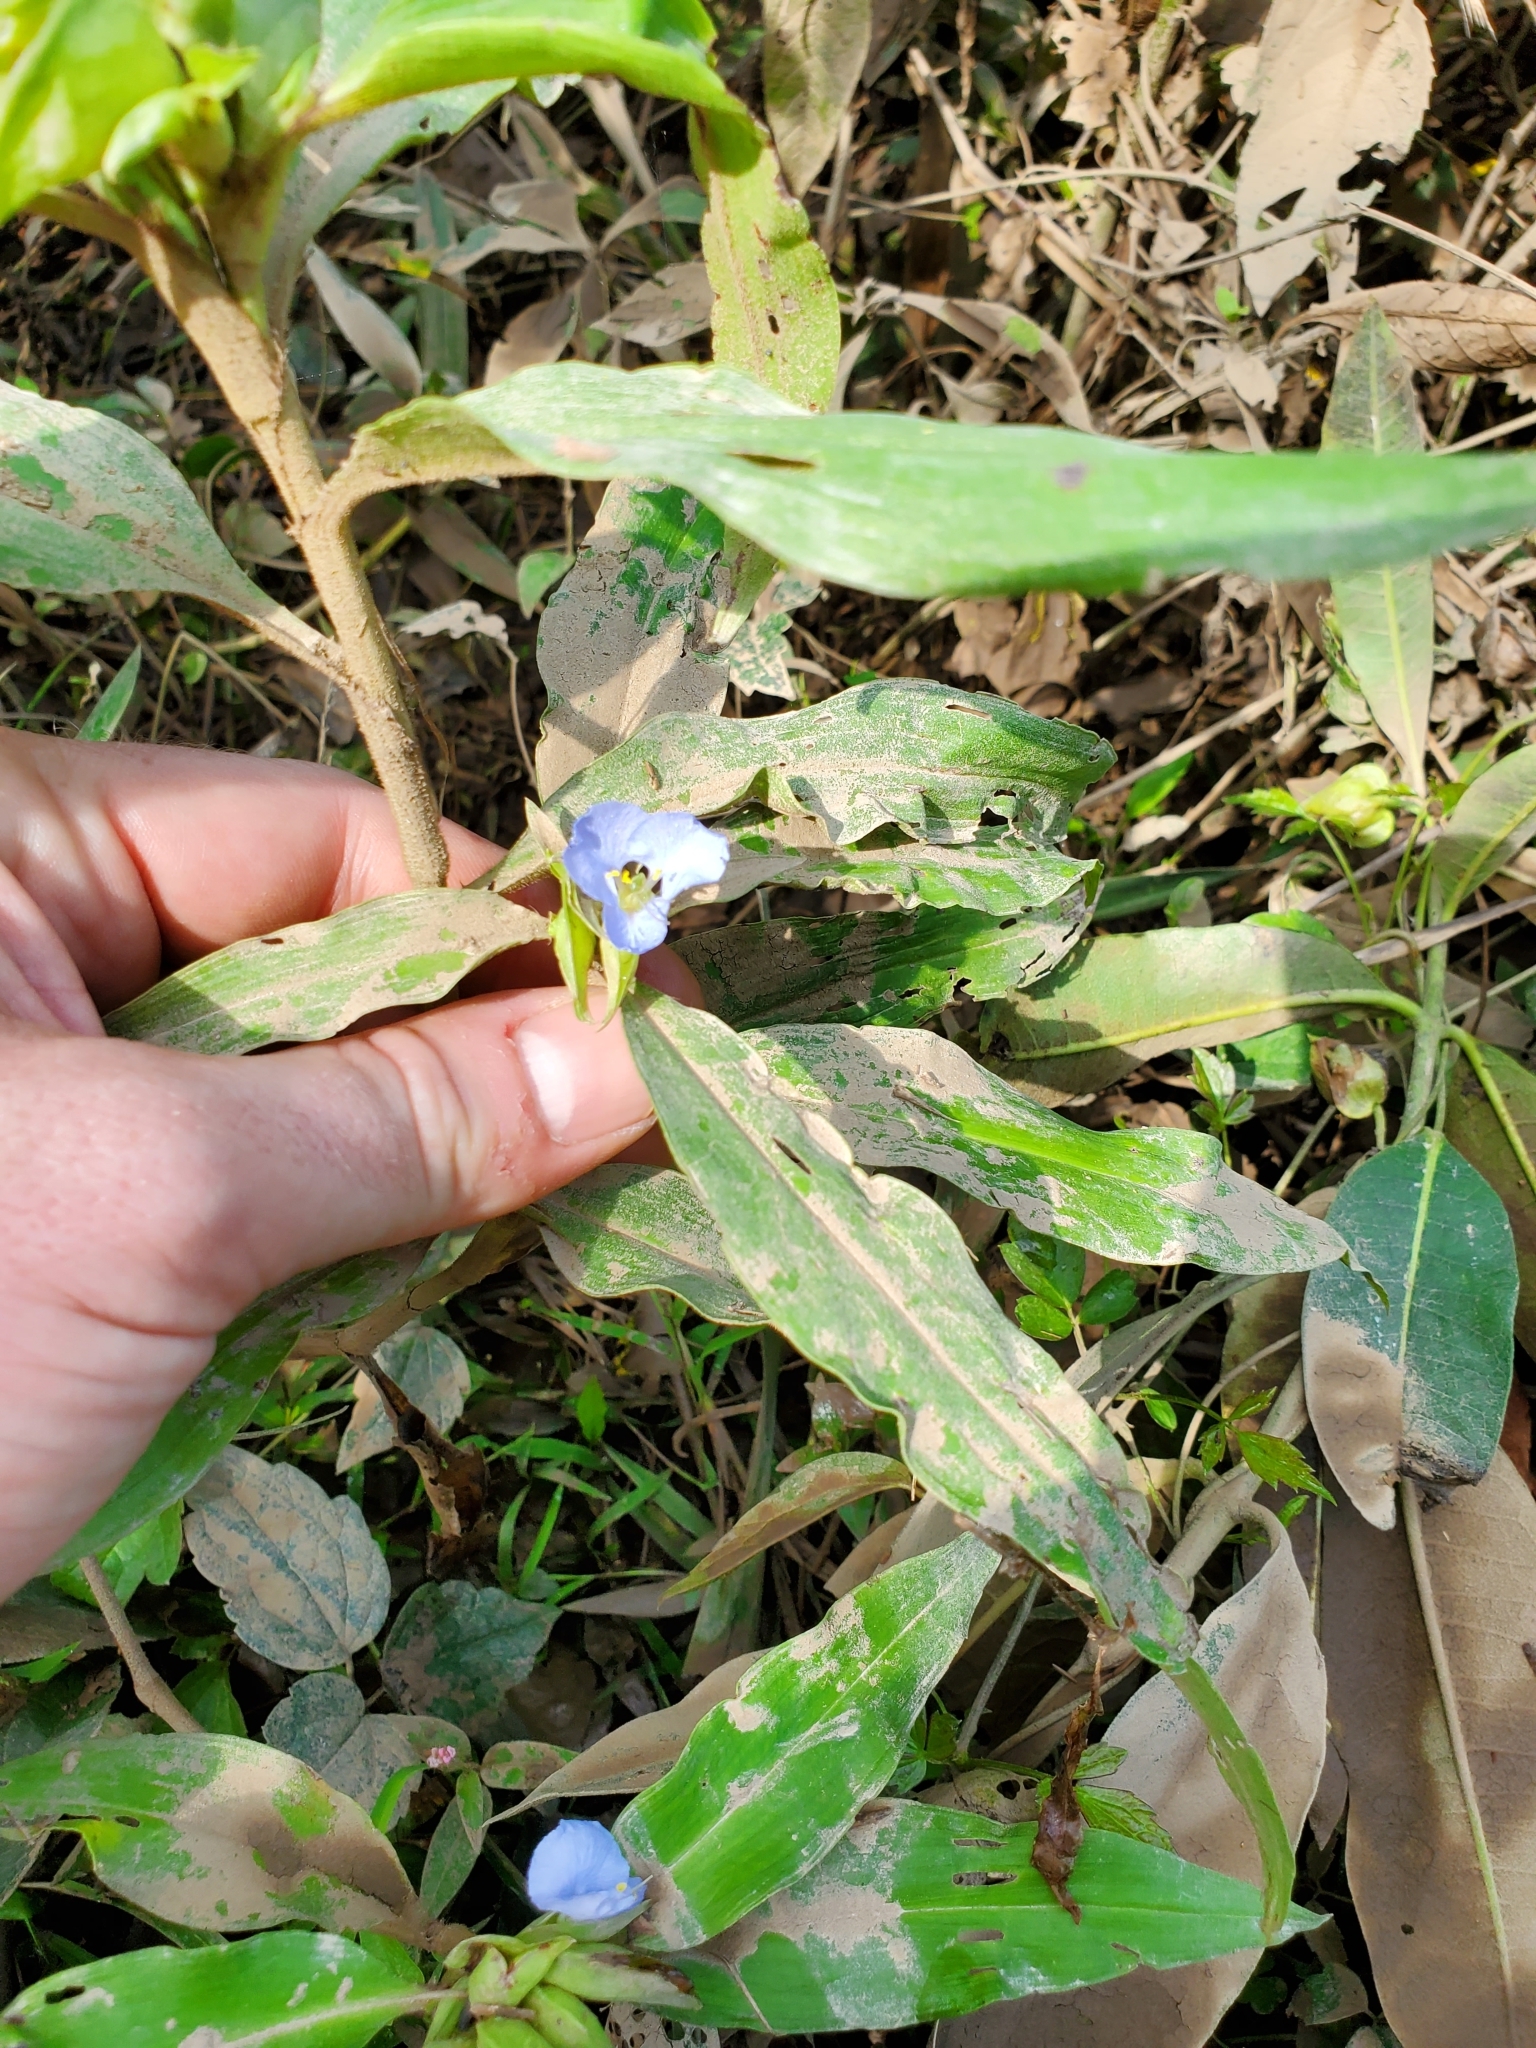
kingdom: Plantae
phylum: Tracheophyta
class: Liliopsida
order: Commelinales
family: Commelinaceae
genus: Commelina
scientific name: Commelina virginica
